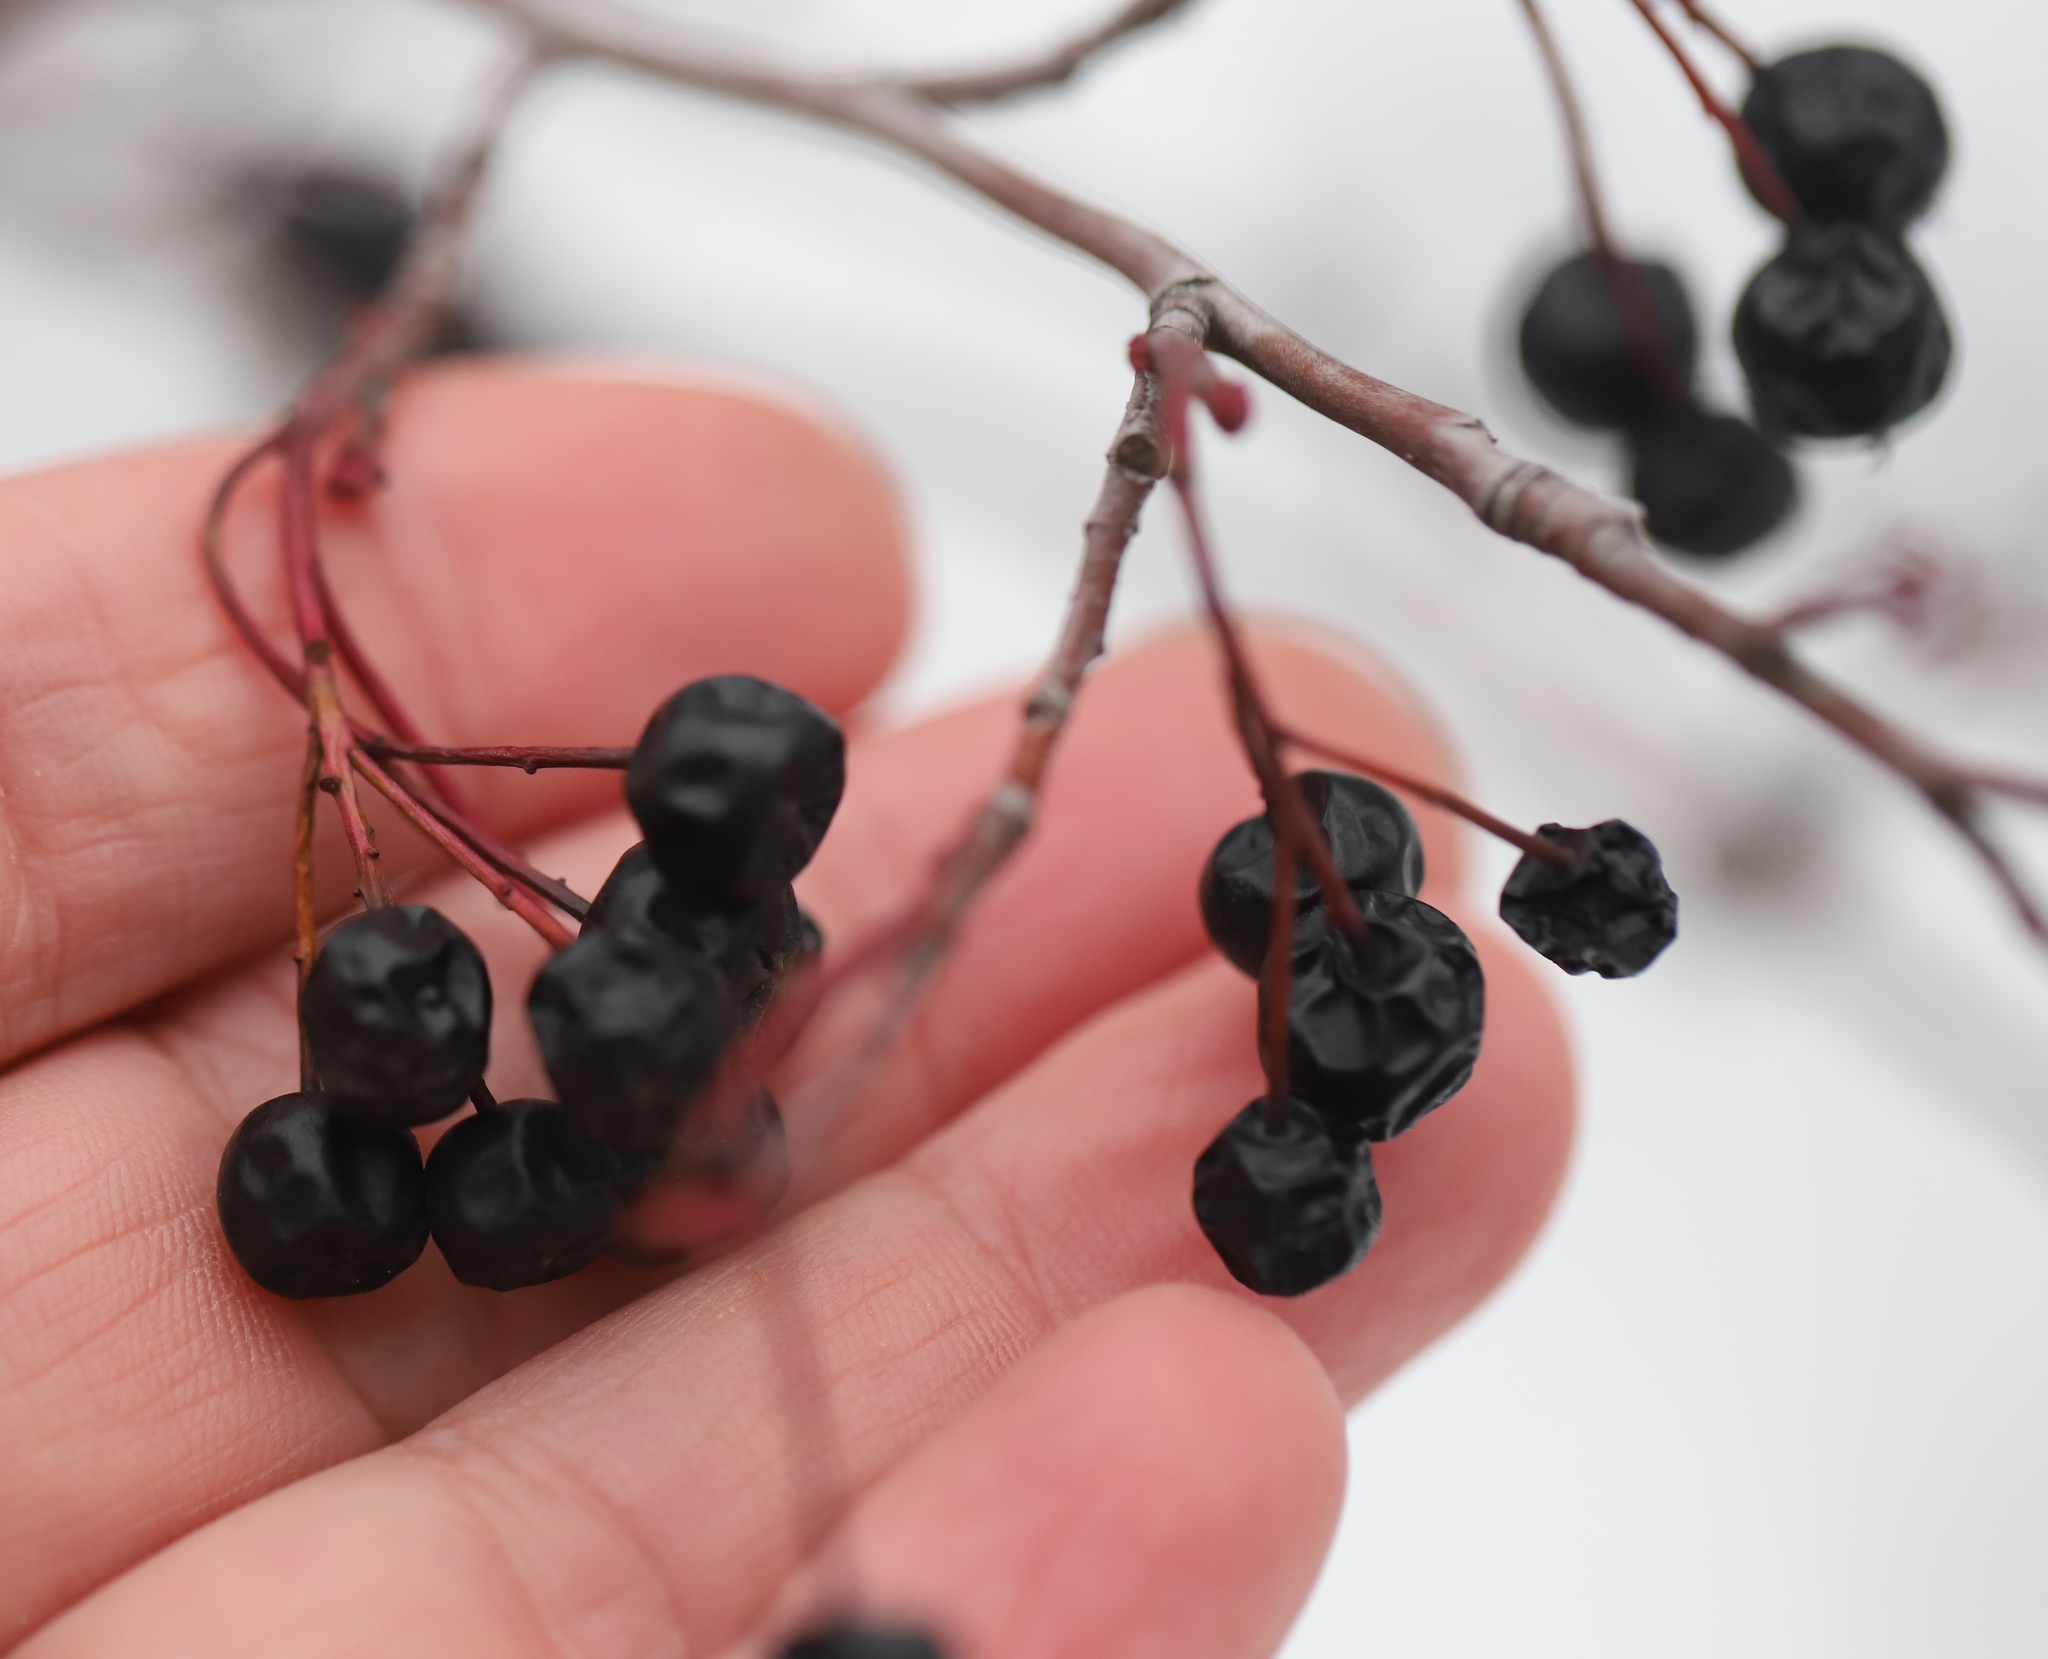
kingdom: Plantae
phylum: Tracheophyta
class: Magnoliopsida
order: Rosales
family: Rosaceae
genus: Aronia
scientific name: Aronia melanocarpa
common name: Black chokeberry
